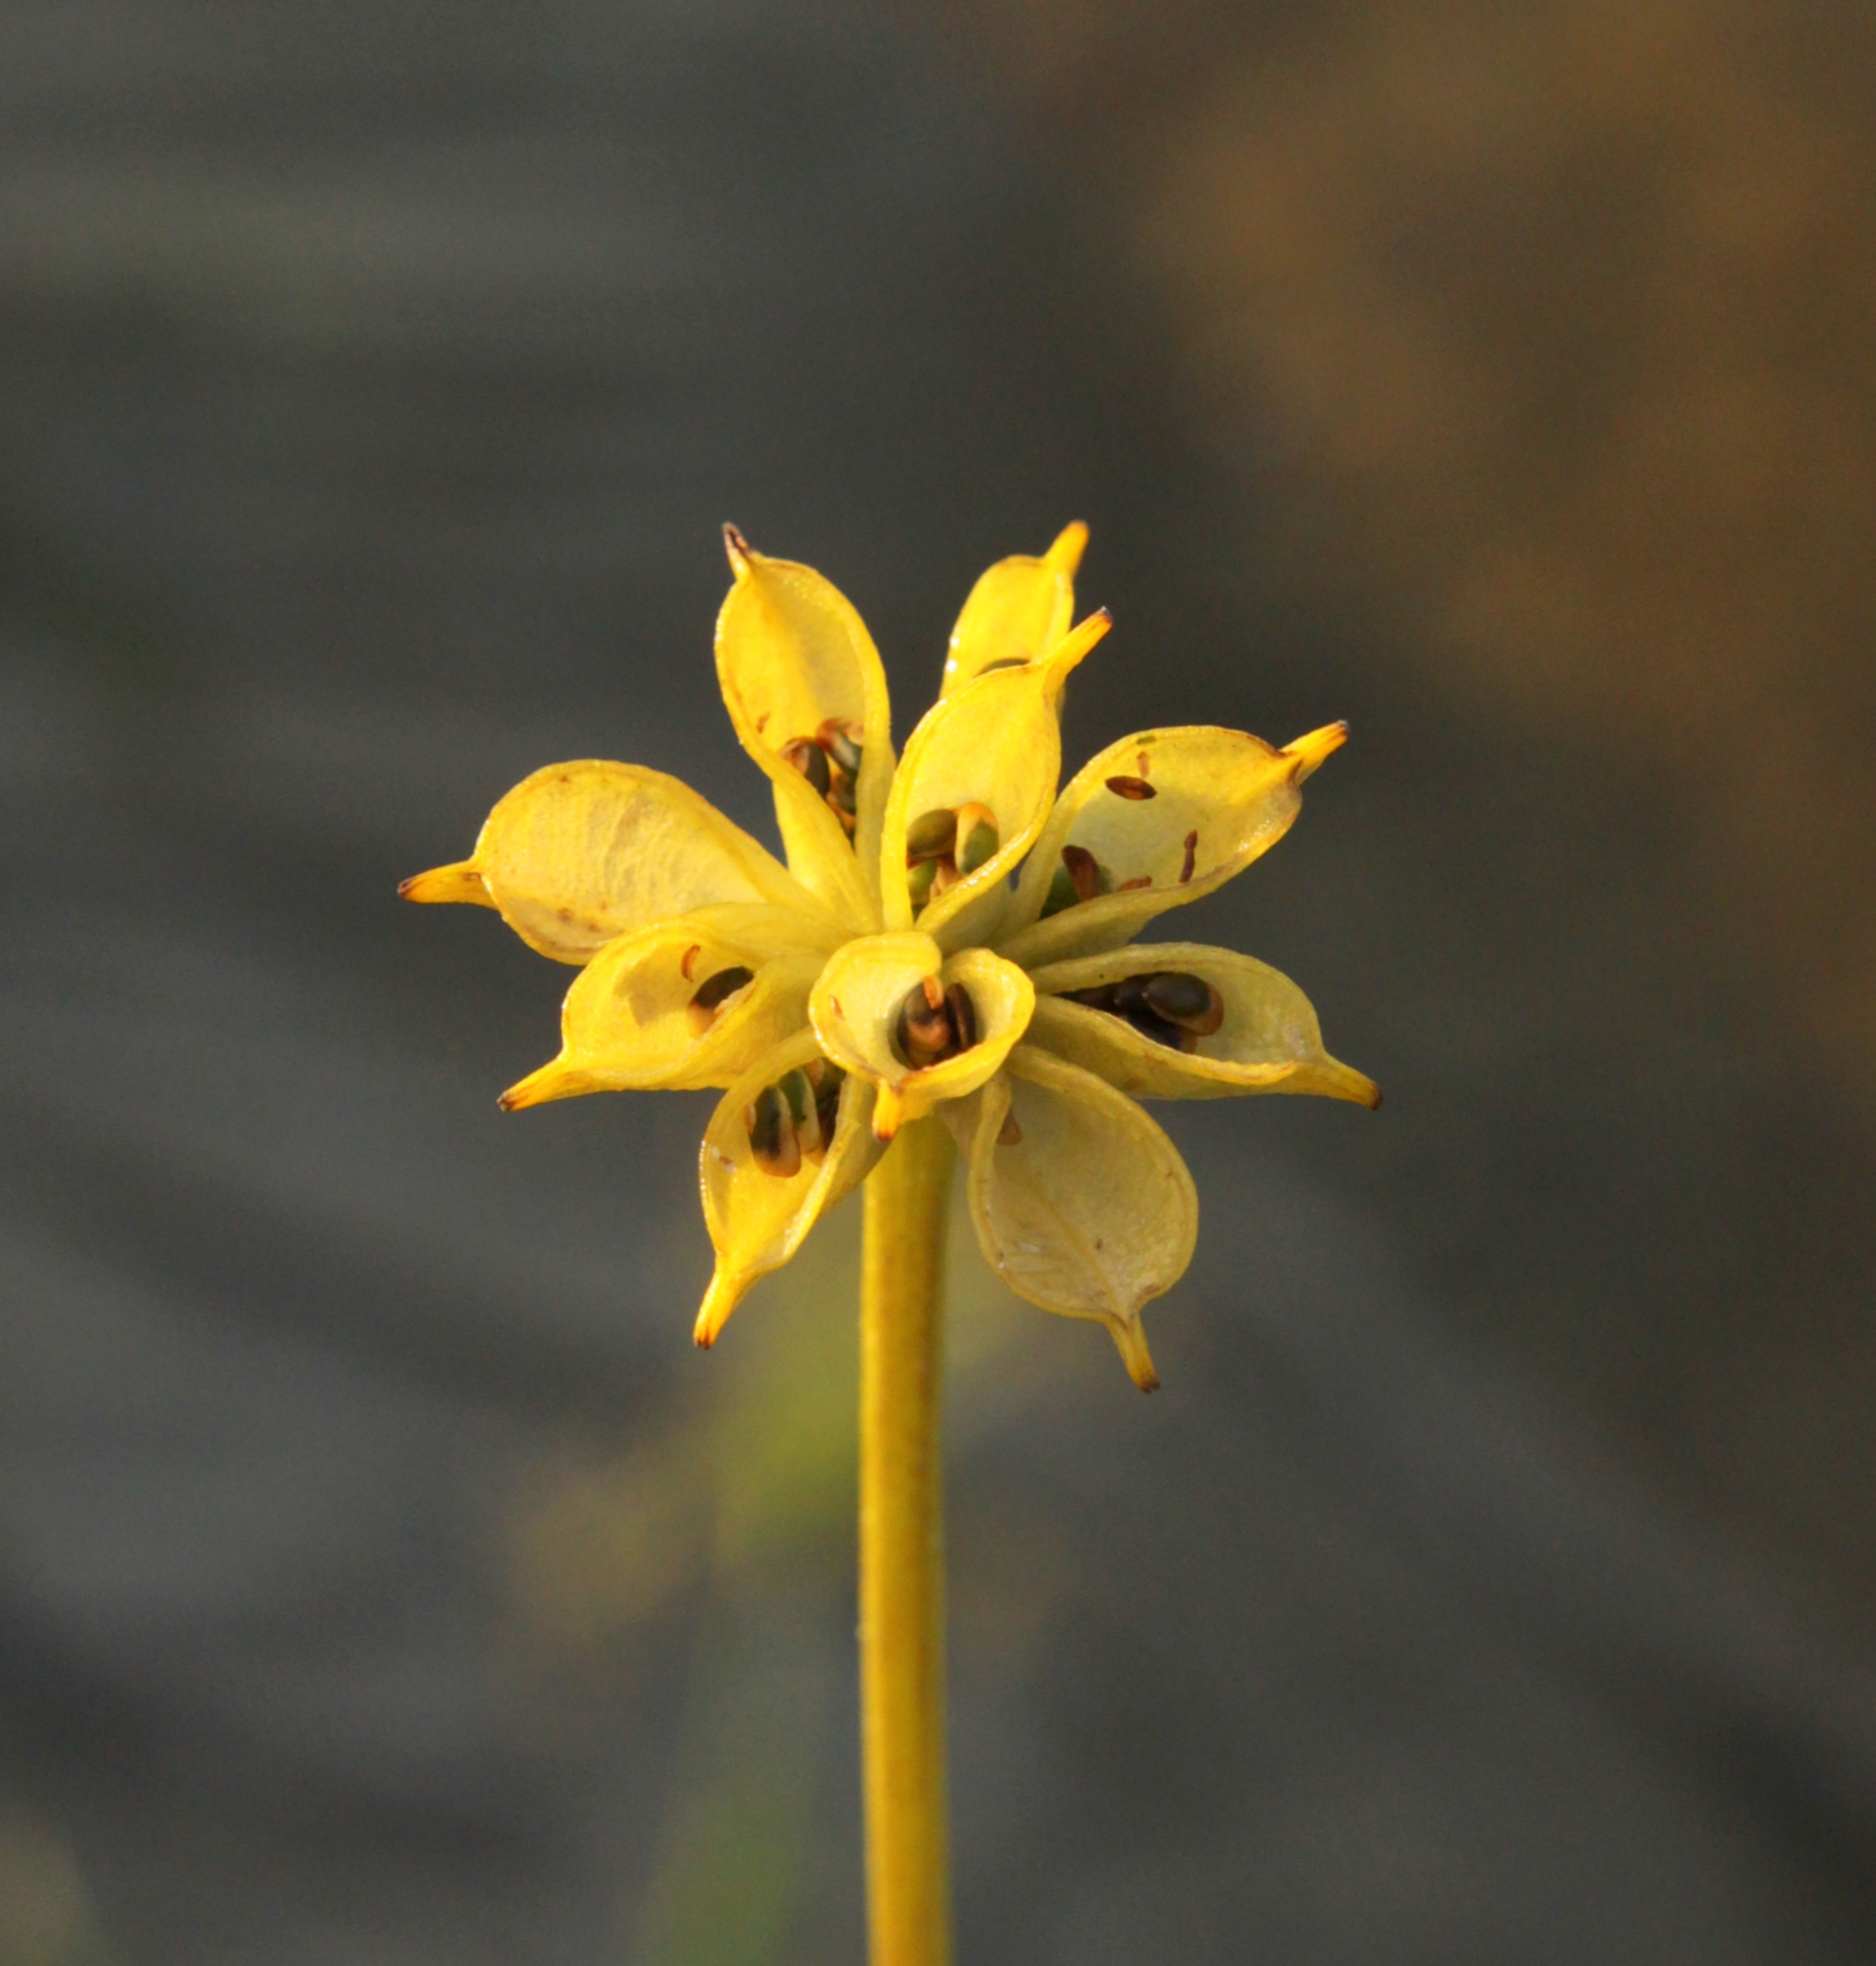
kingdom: Plantae
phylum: Tracheophyta
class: Magnoliopsida
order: Ranunculales
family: Ranunculaceae
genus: Caltha
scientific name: Caltha palustris
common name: Marsh marigold
